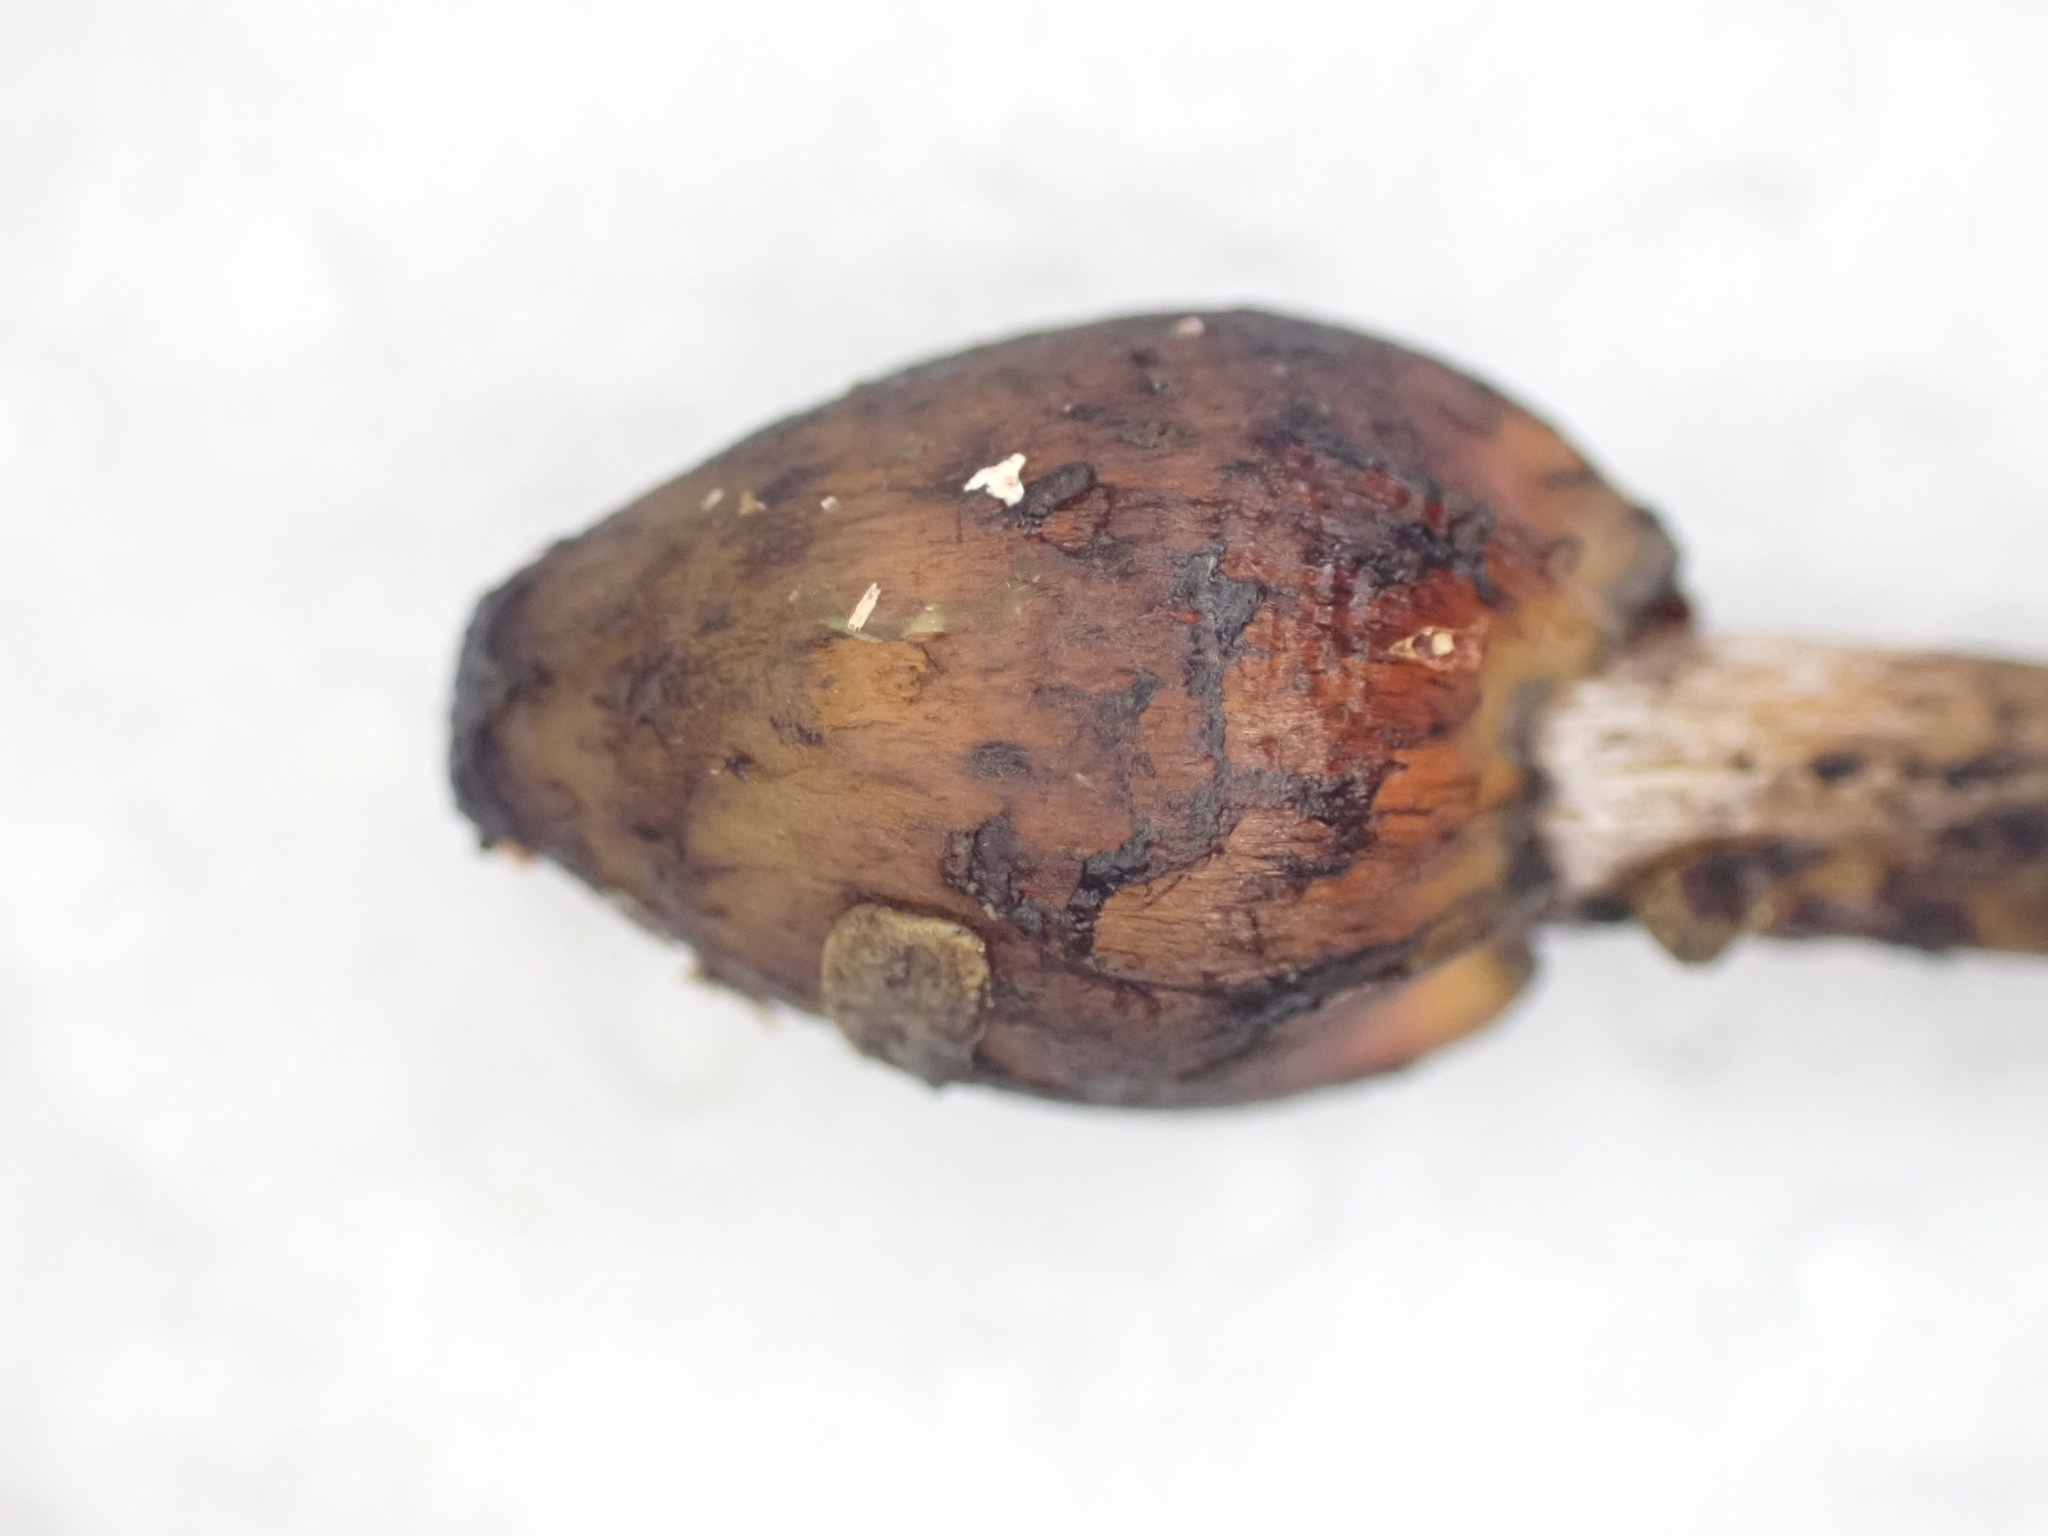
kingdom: Fungi
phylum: Basidiomycota
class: Agaricomycetes
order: Agaricales
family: Hygrophoraceae
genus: Hygrocybe
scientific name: Hygrocybe astatogala
